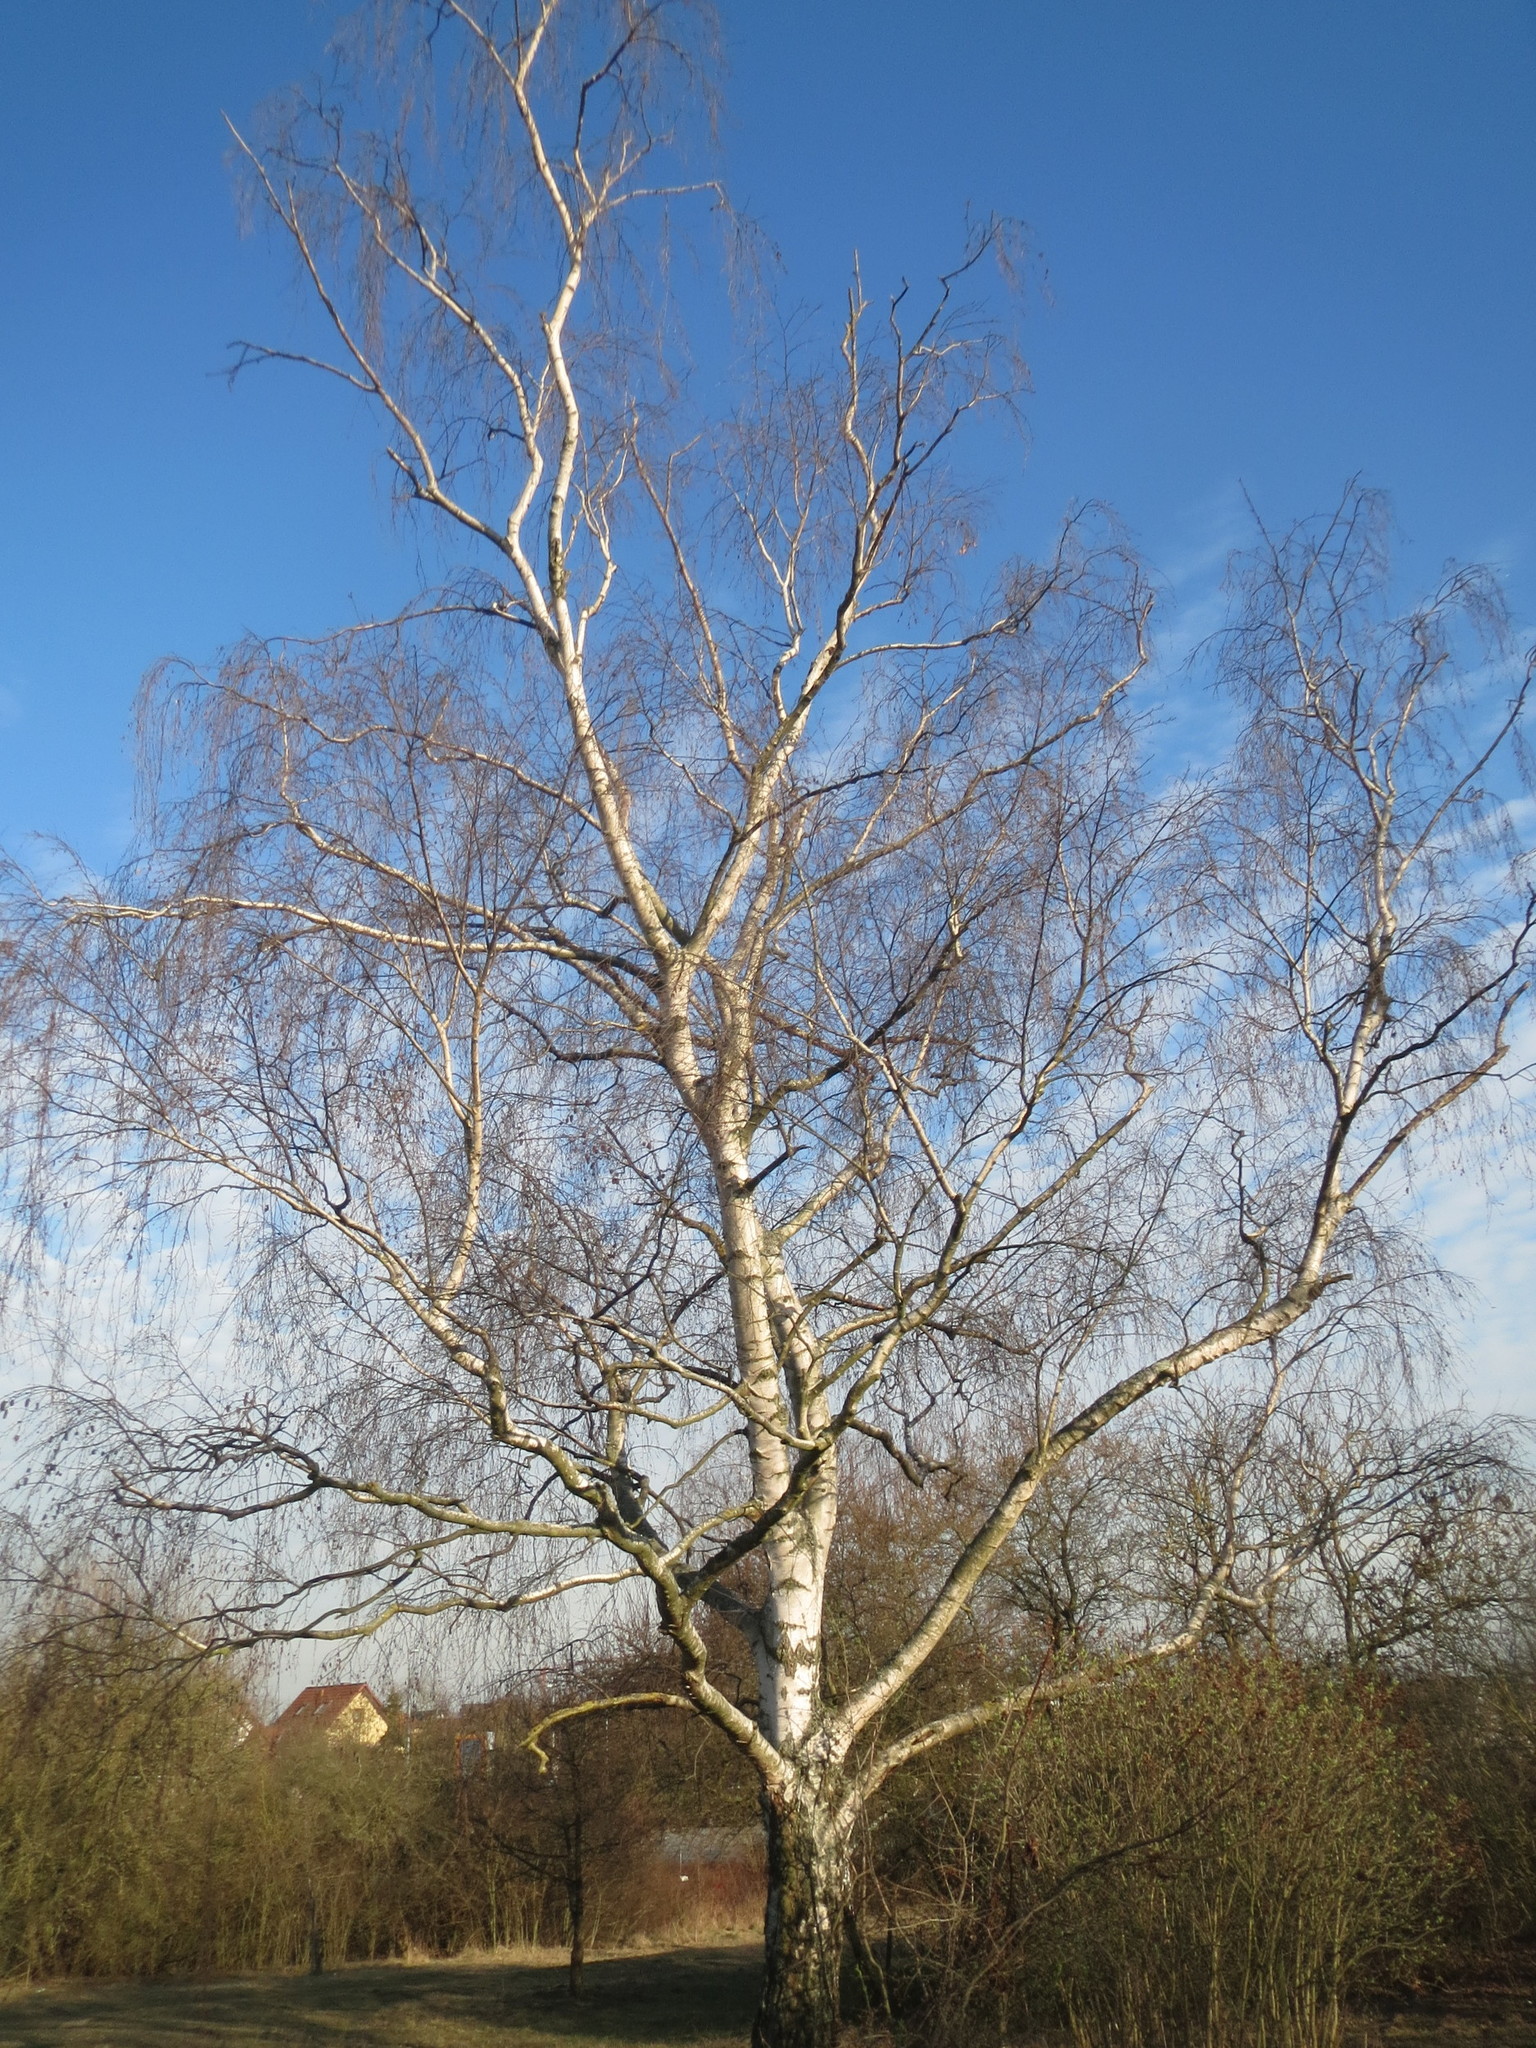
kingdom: Plantae
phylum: Tracheophyta
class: Magnoliopsida
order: Fagales
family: Betulaceae
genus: Betula
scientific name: Betula pendula
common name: Silver birch
